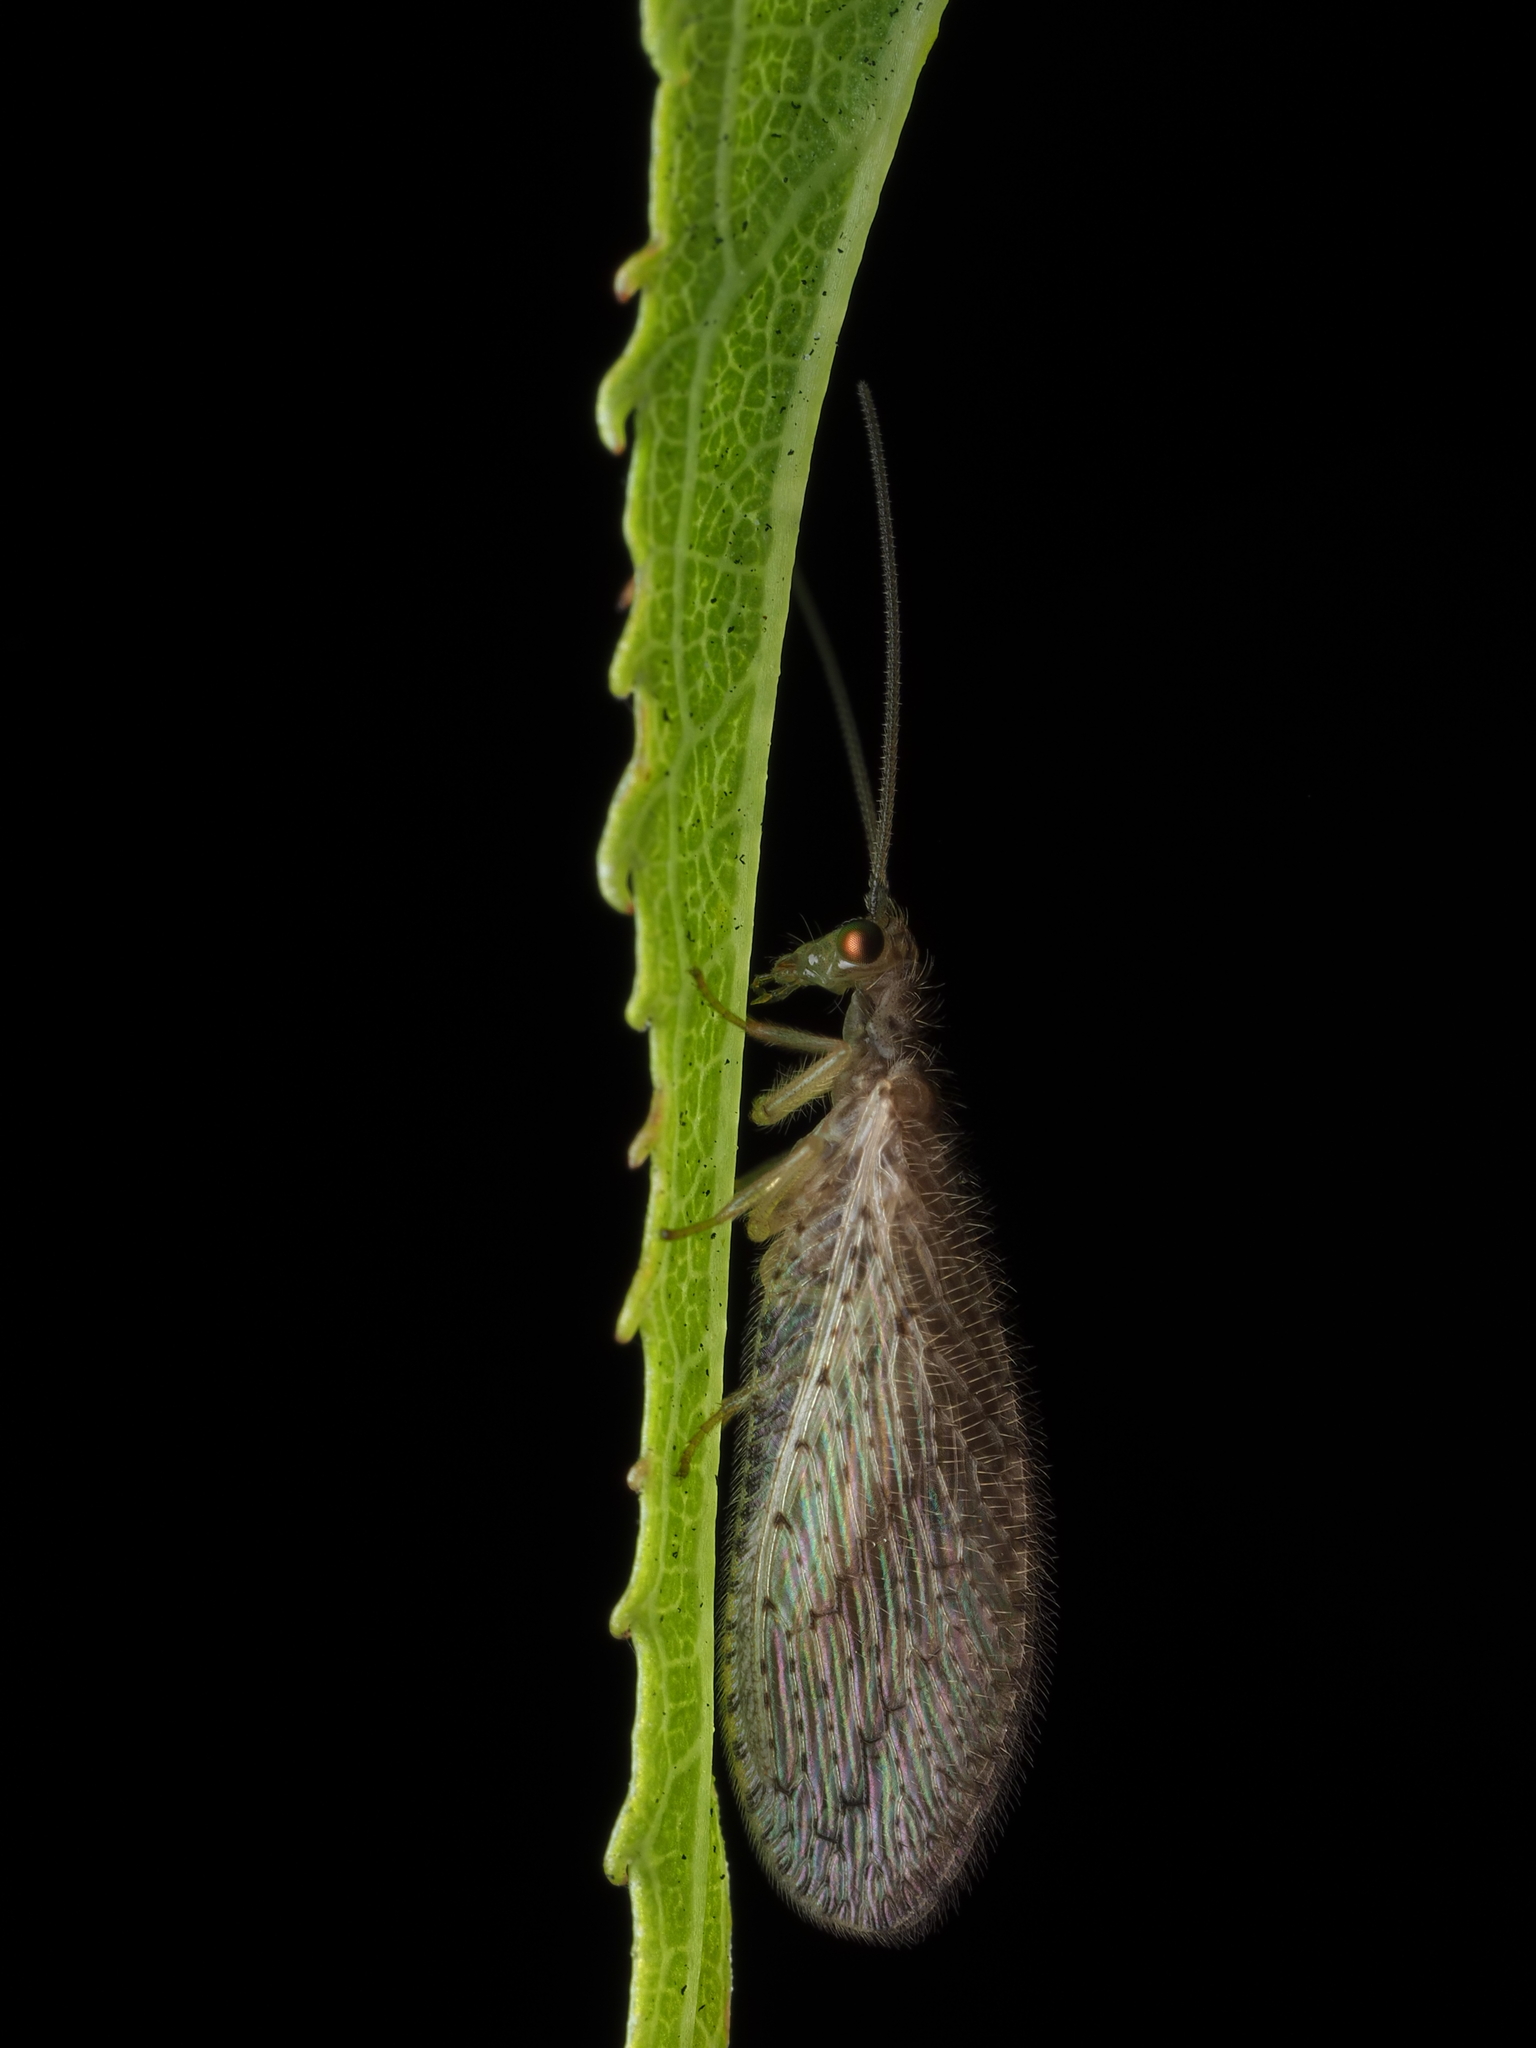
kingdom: Animalia
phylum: Arthropoda
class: Insecta
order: Neuroptera
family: Hemerobiidae
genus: Micromus
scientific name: Micromus tasmaniae
